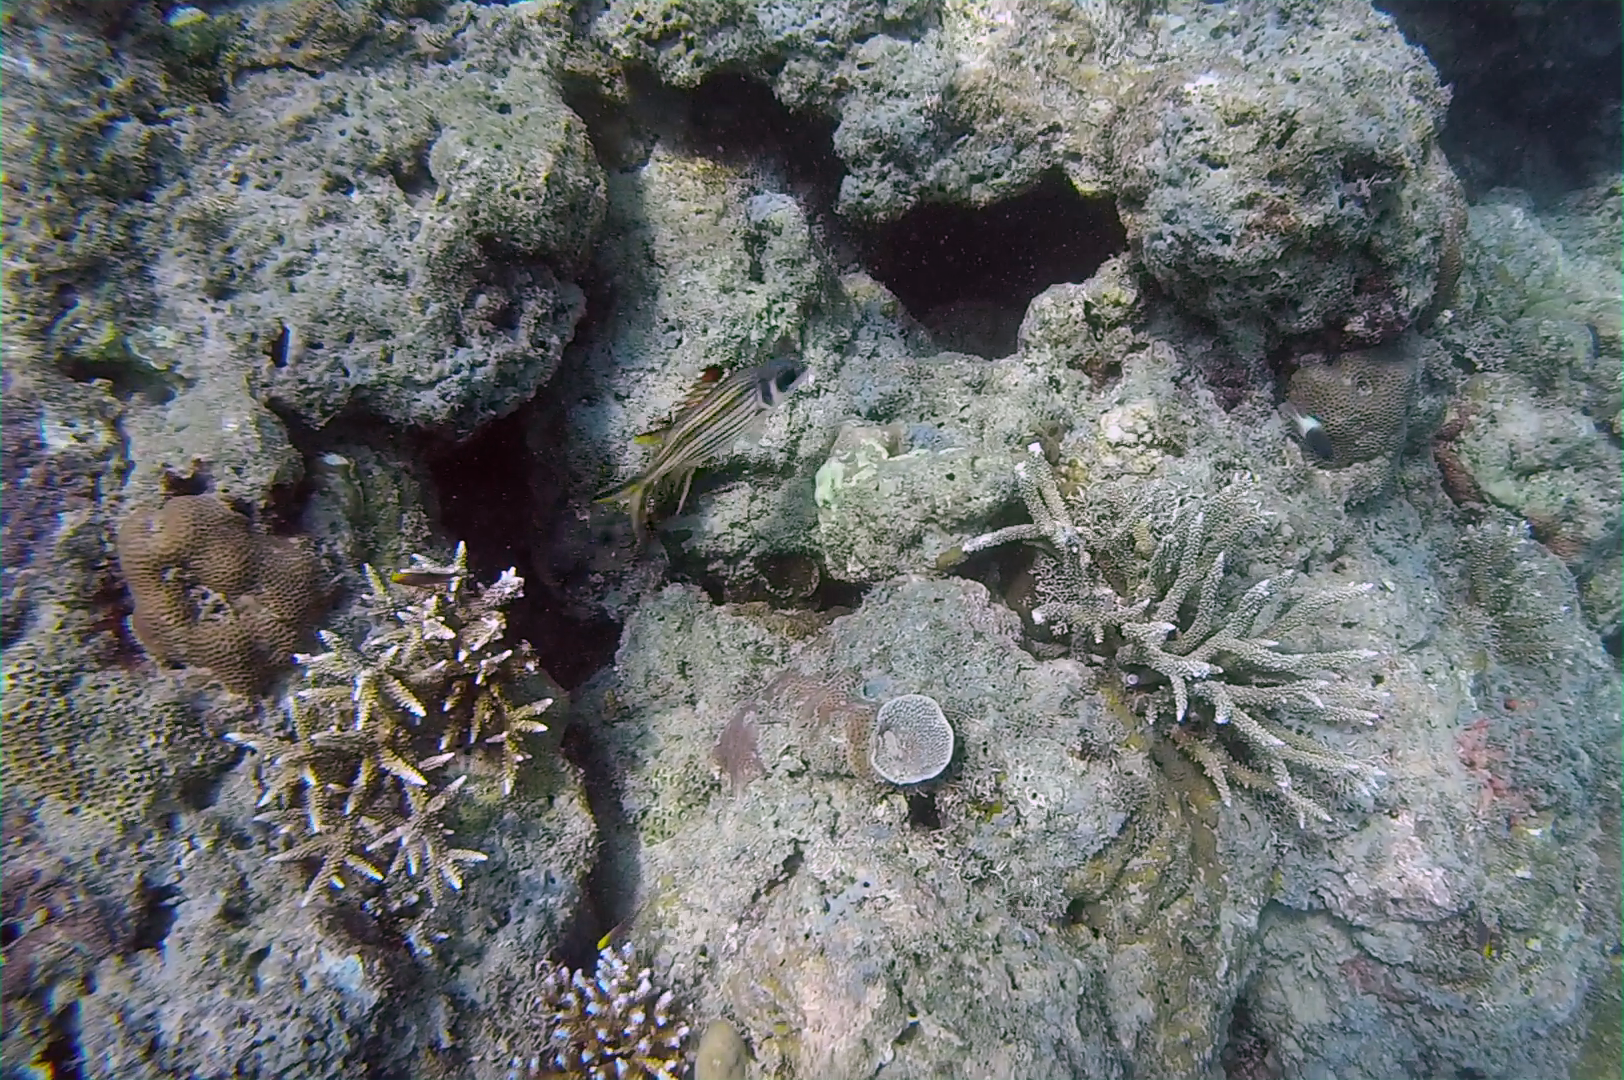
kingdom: Animalia
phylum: Chordata
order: Beryciformes
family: Holocentridae
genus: Neoniphon
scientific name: Neoniphon sammara
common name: Sammara squirrelfish
